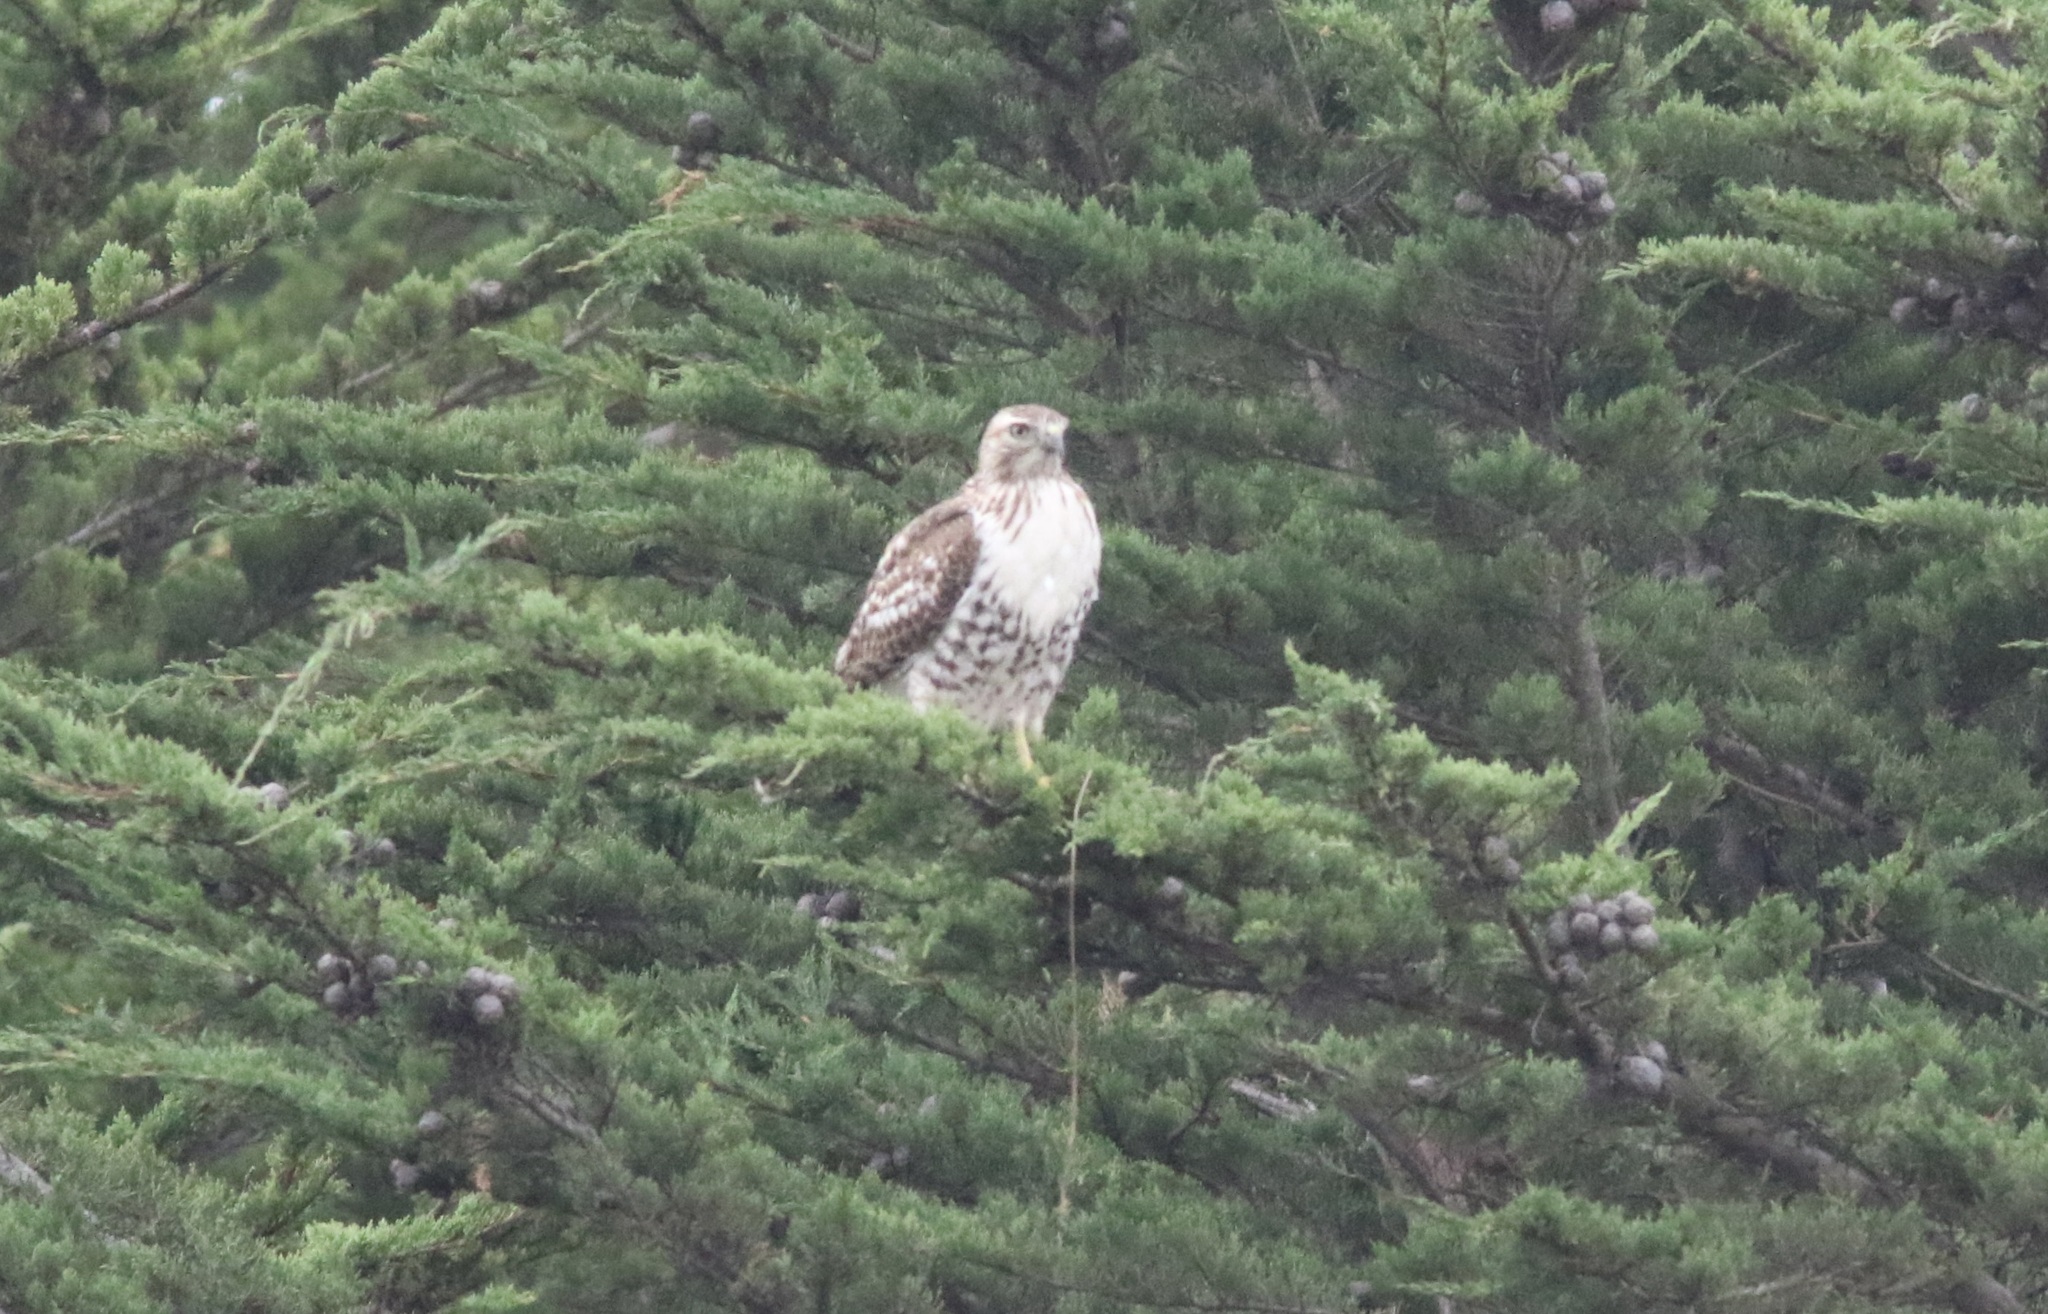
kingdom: Animalia
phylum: Chordata
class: Aves
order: Accipitriformes
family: Accipitridae
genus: Buteo
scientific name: Buteo jamaicensis
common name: Red-tailed hawk
